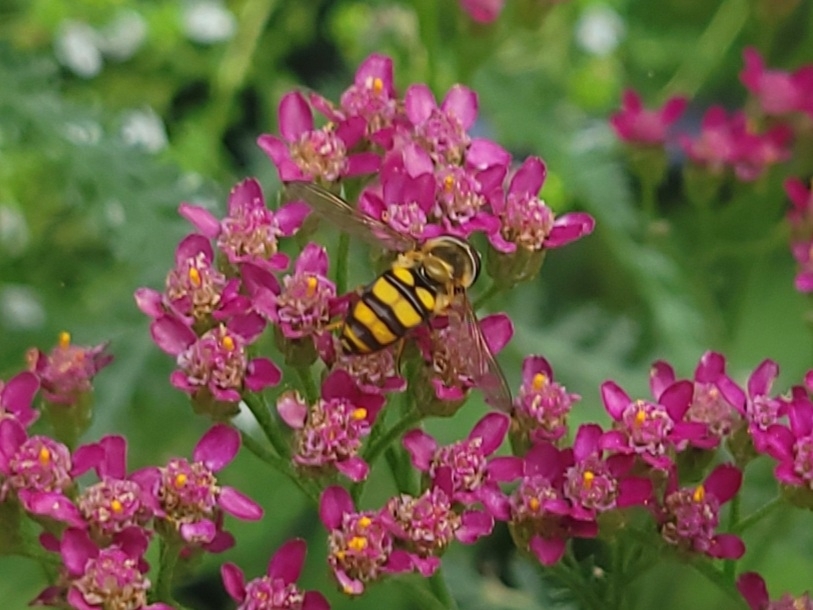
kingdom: Animalia
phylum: Arthropoda
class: Insecta
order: Diptera
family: Syrphidae
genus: Eupeodes
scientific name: Eupeodes
